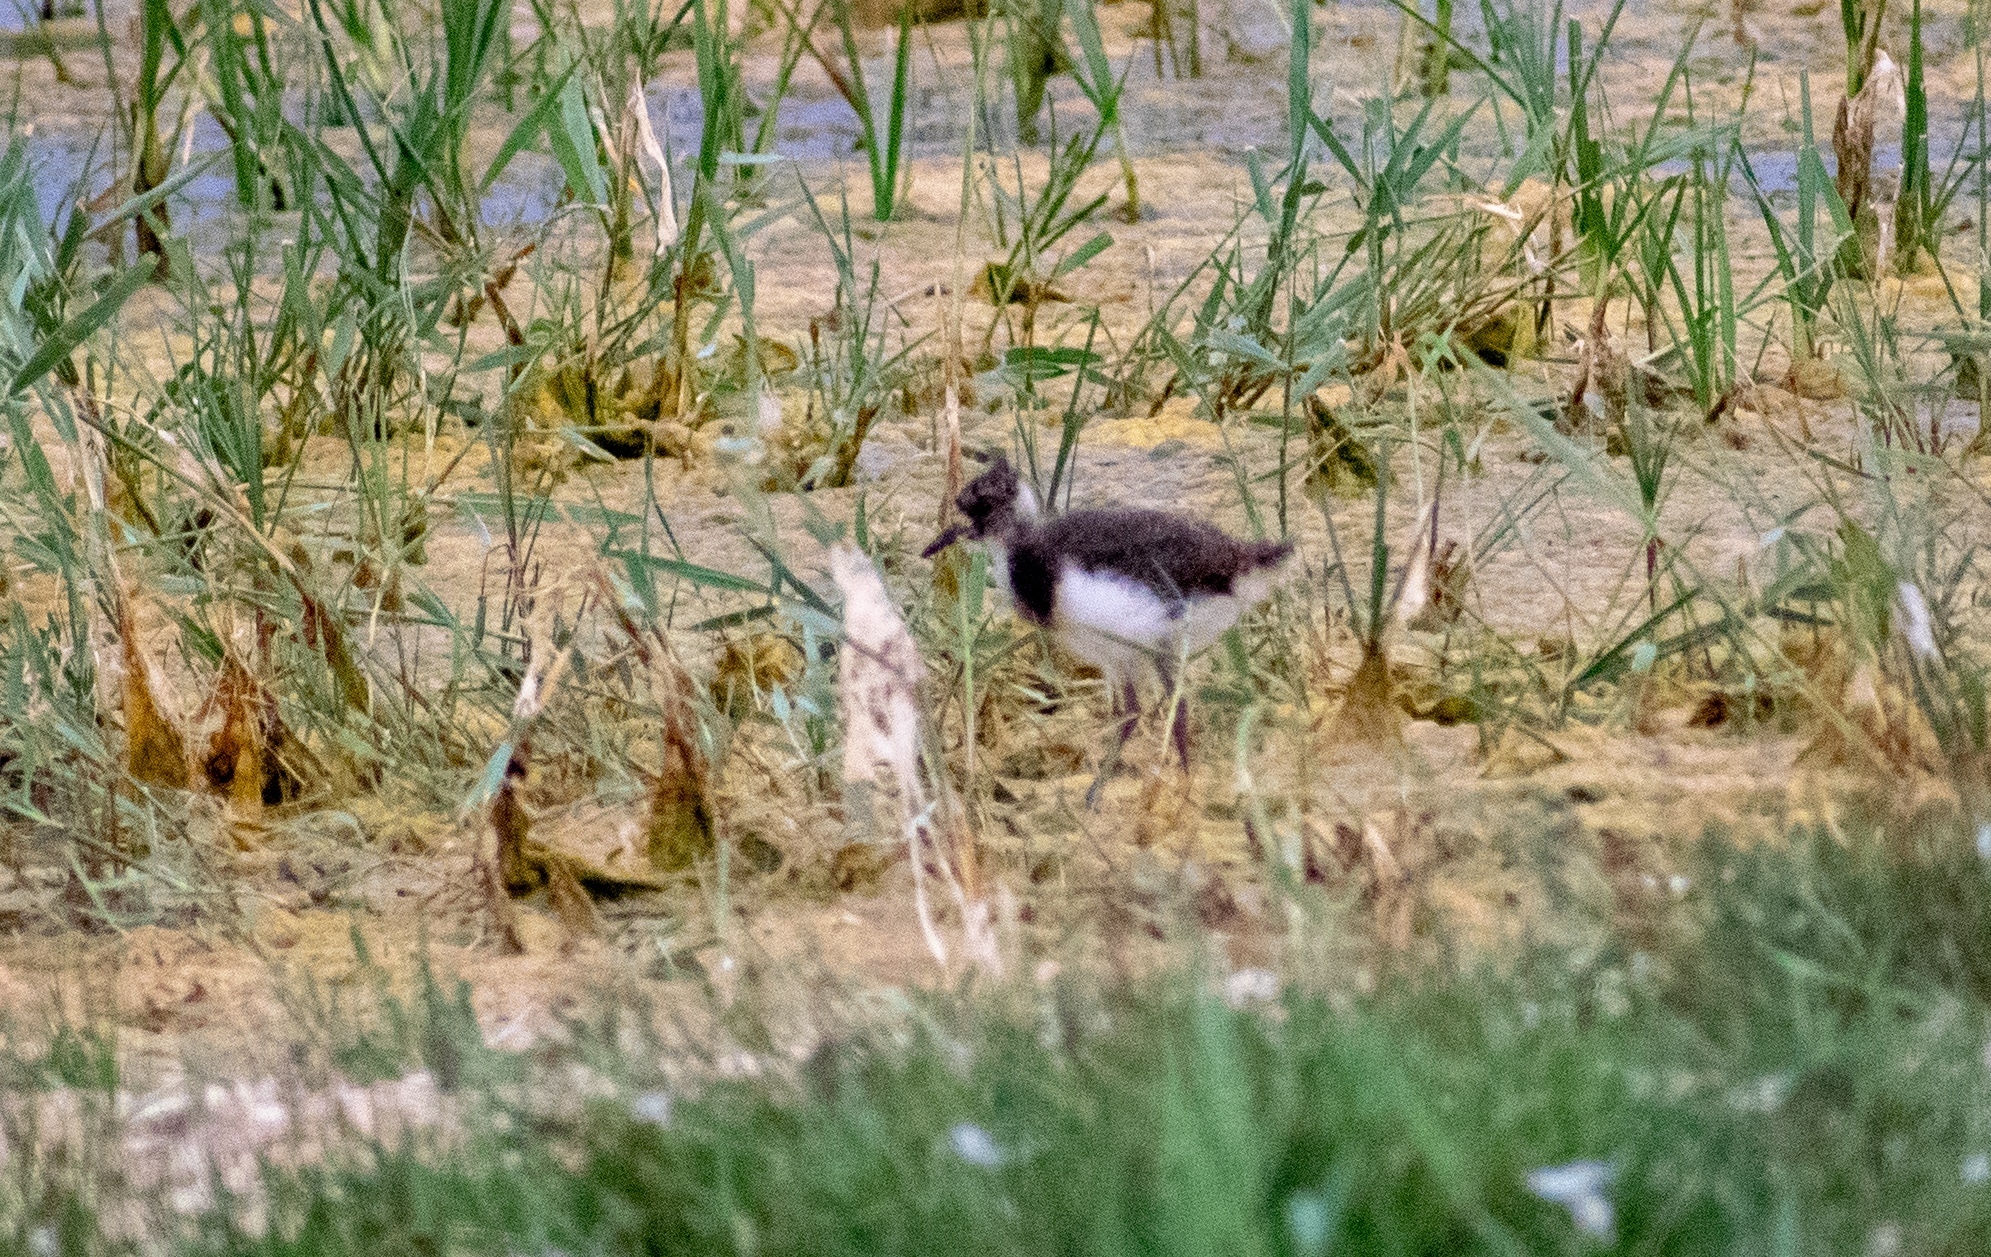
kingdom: Animalia
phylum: Chordata
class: Aves
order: Charadriiformes
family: Charadriidae
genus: Vanellus
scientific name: Vanellus vanellus
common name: Northern lapwing
